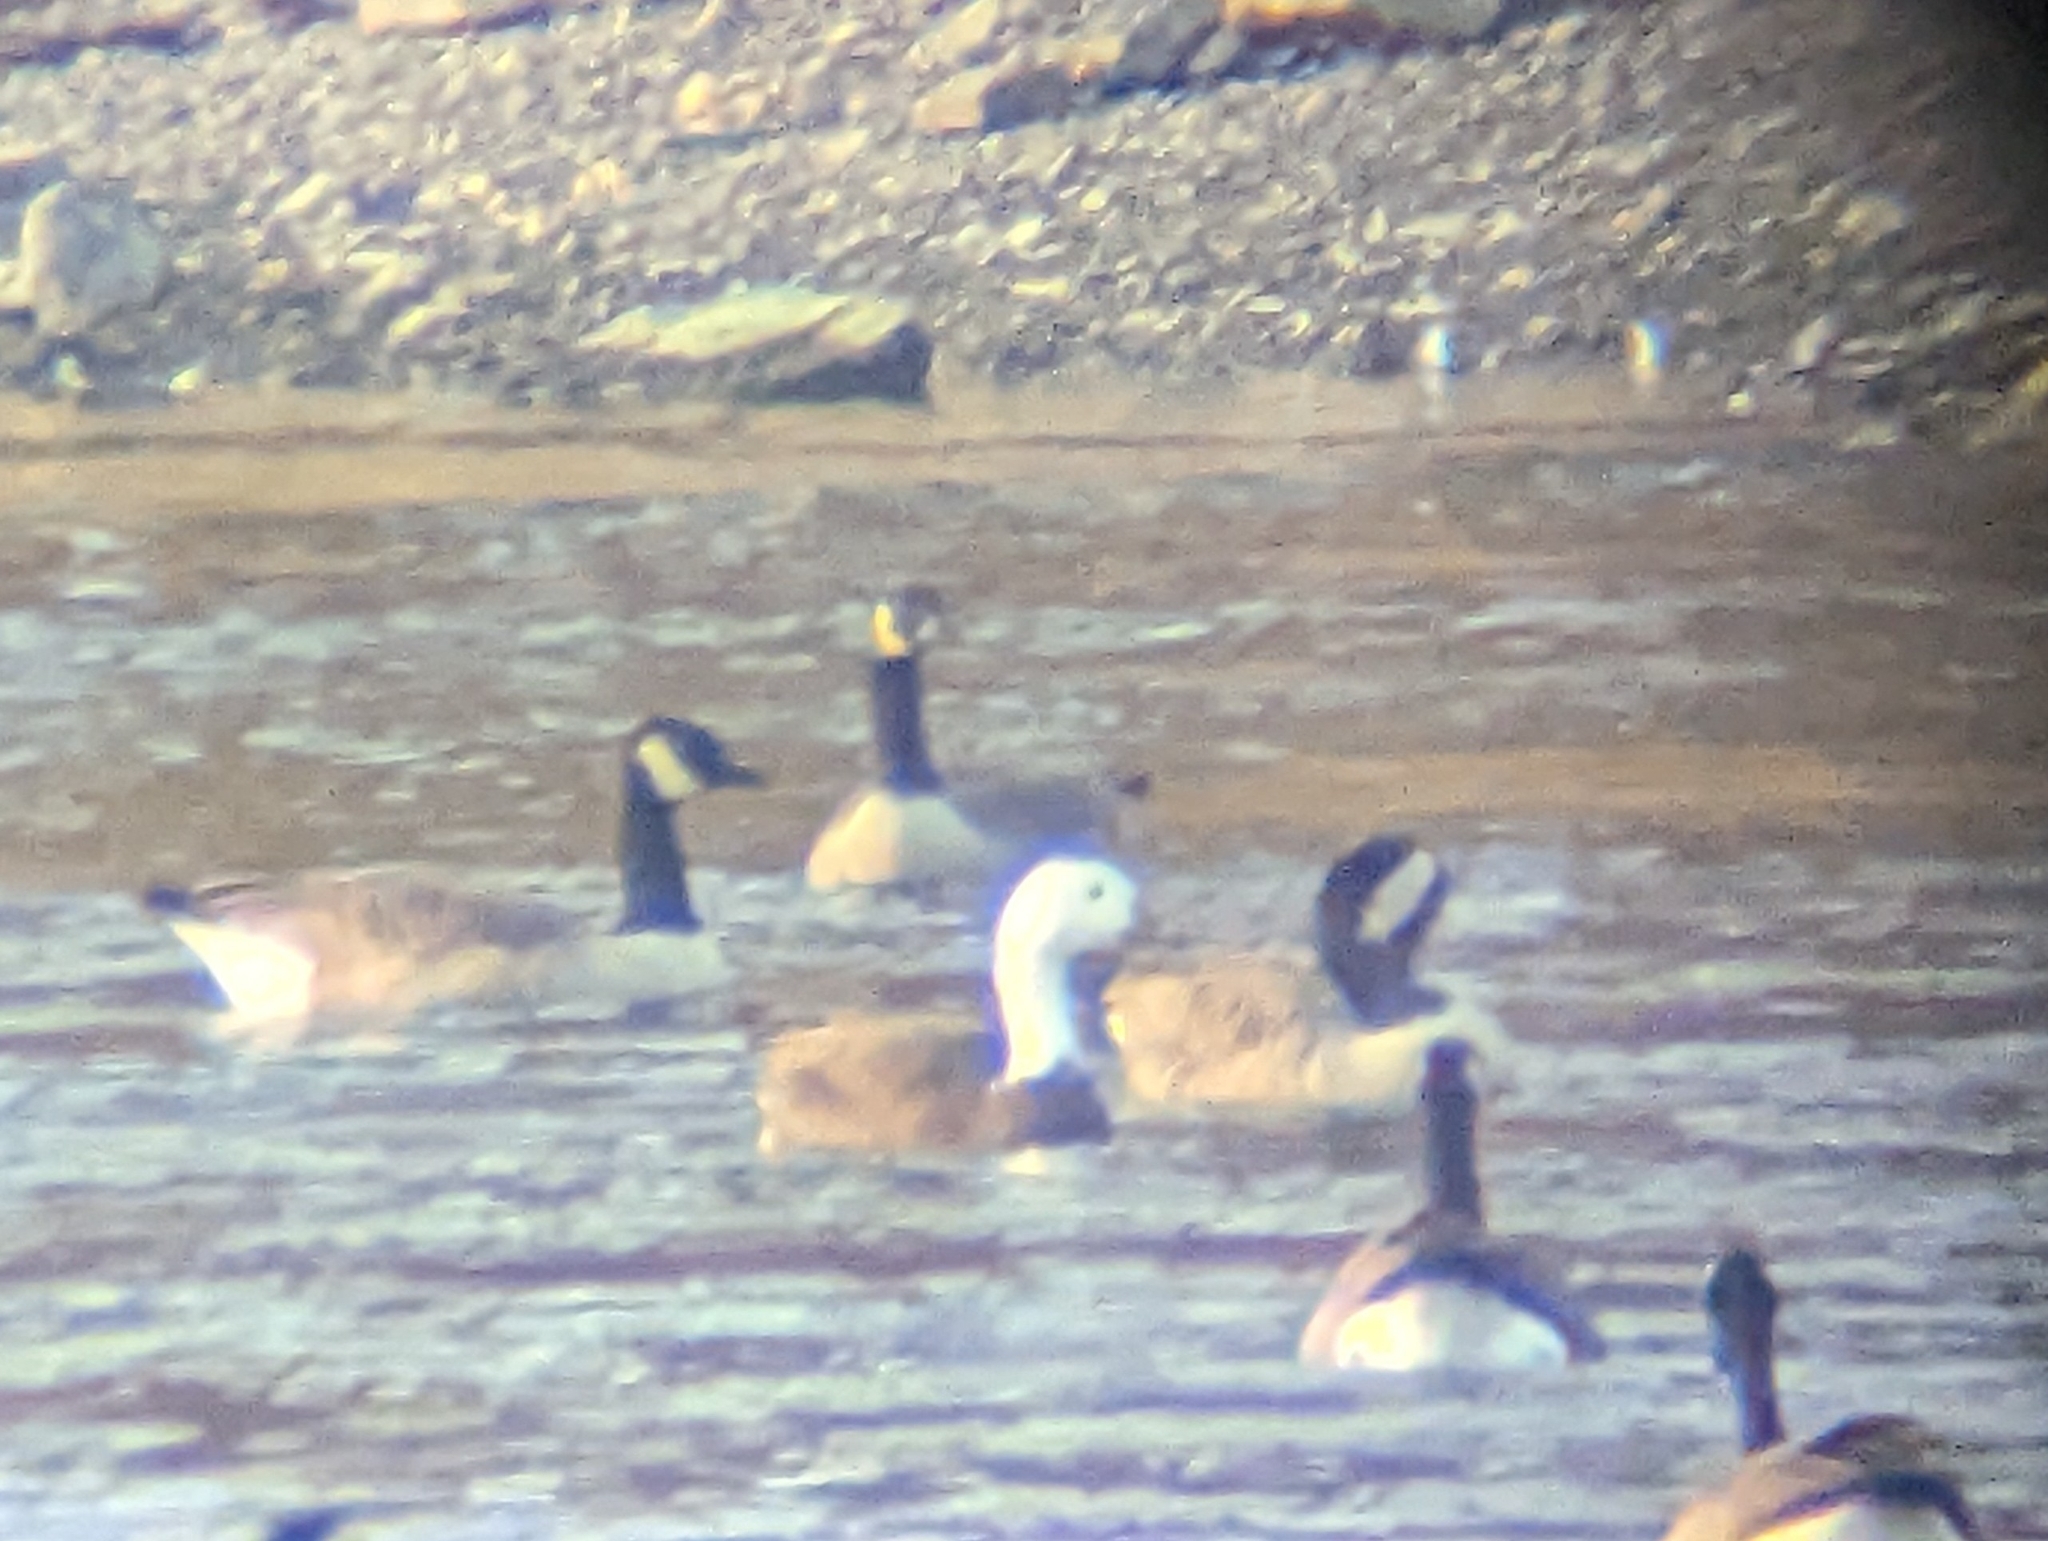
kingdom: Animalia
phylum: Chordata
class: Aves
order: Anseriformes
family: Anatidae
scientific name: Anatidae
